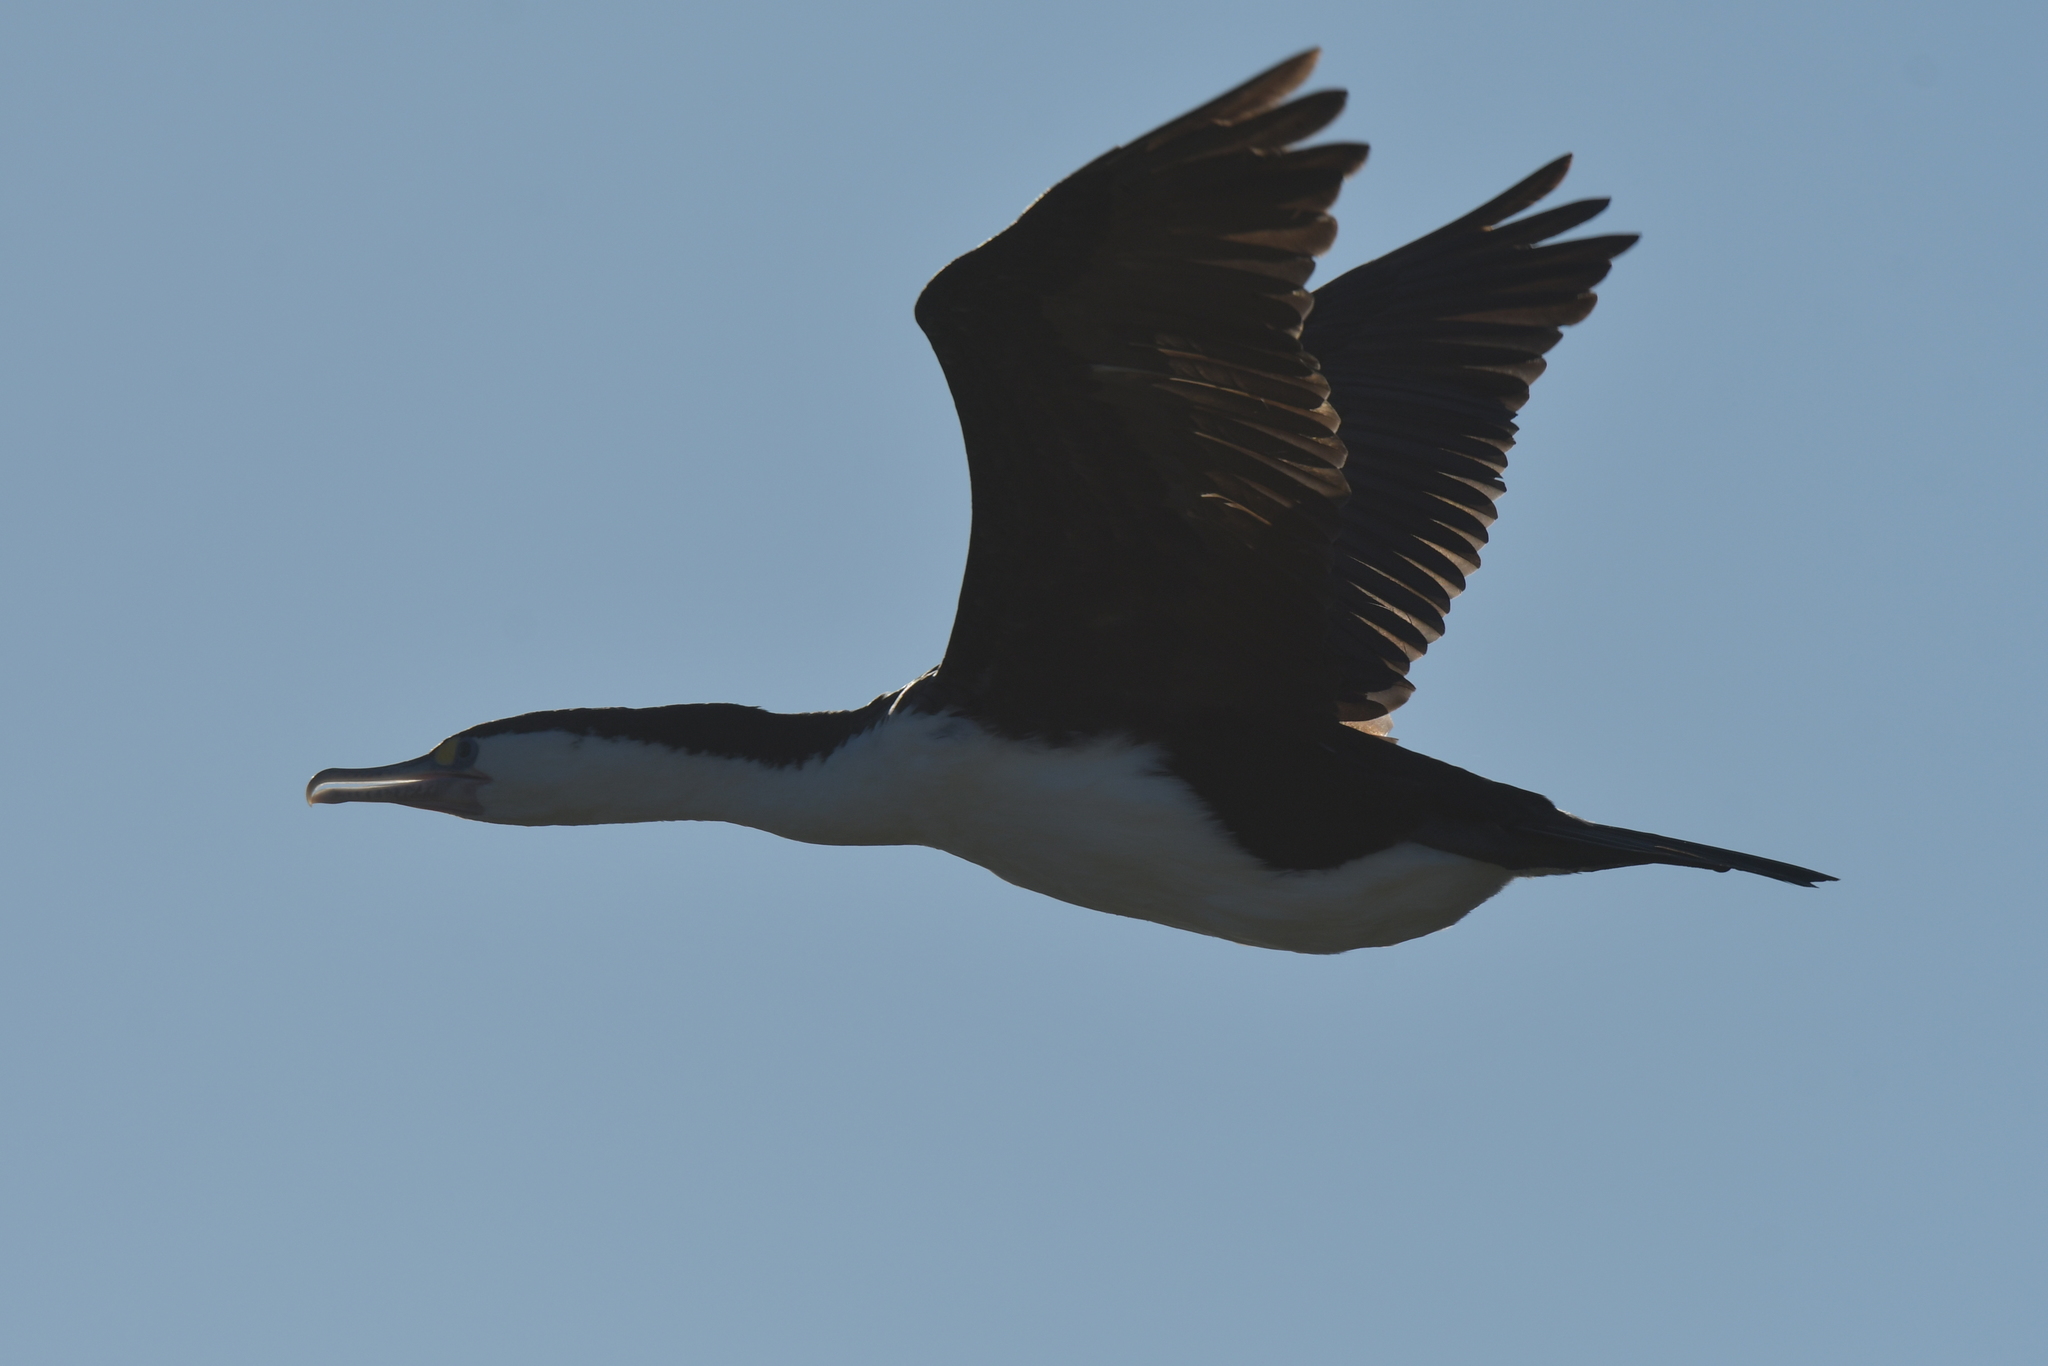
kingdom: Animalia
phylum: Chordata
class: Aves
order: Suliformes
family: Phalacrocoracidae
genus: Phalacrocorax
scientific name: Phalacrocorax varius
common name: Pied cormorant
